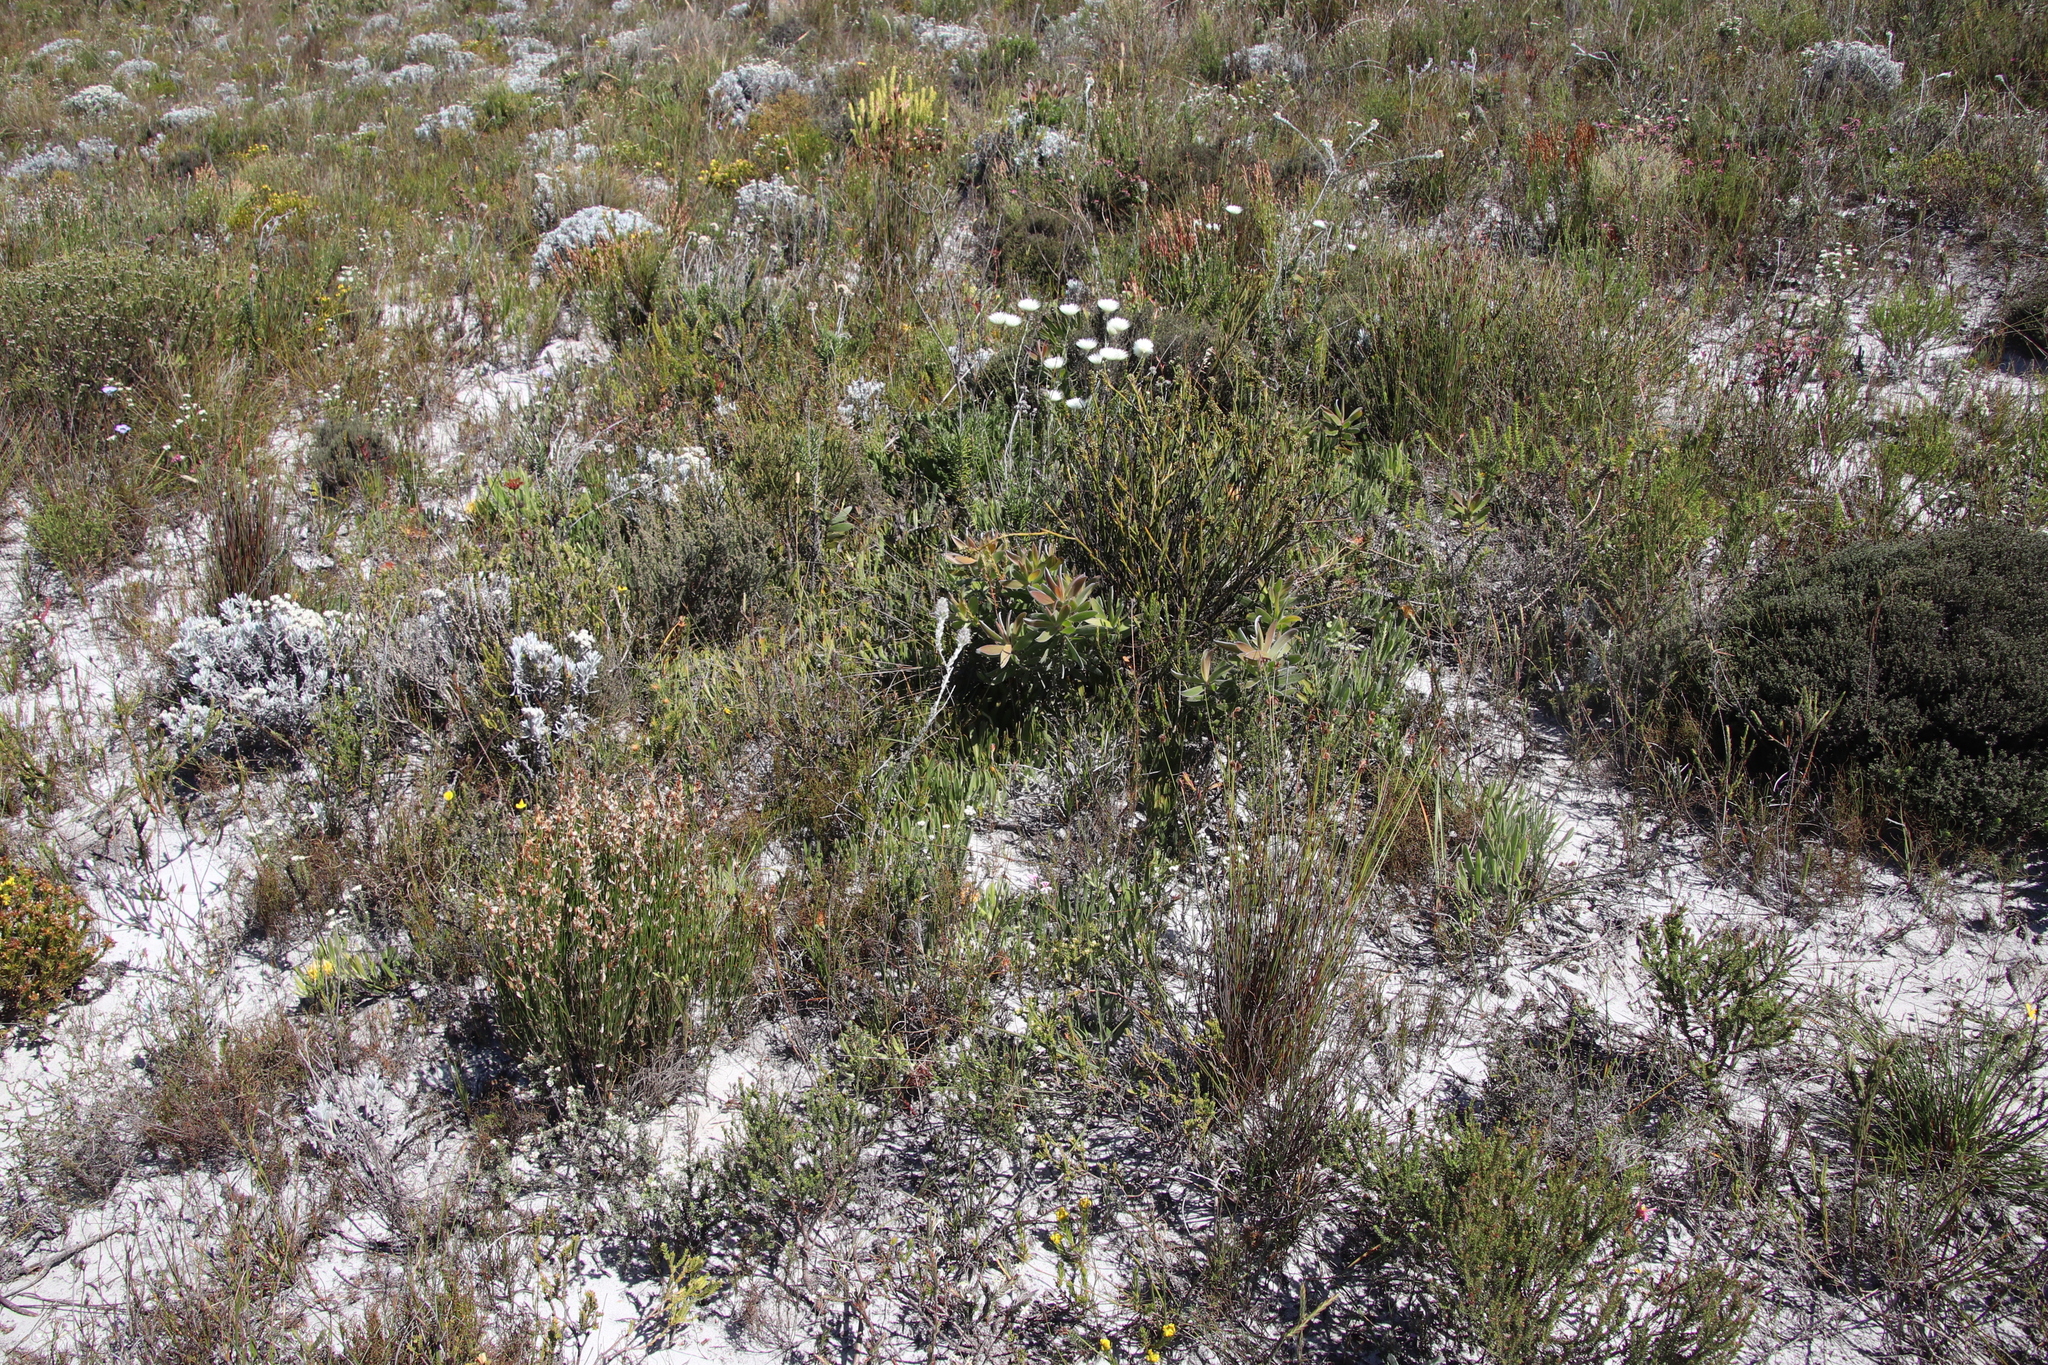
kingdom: Plantae
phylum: Tracheophyta
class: Magnoliopsida
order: Proteales
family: Proteaceae
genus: Leucospermum
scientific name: Leucospermum hypophyllocarpodendron
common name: Snakestem pincushion
